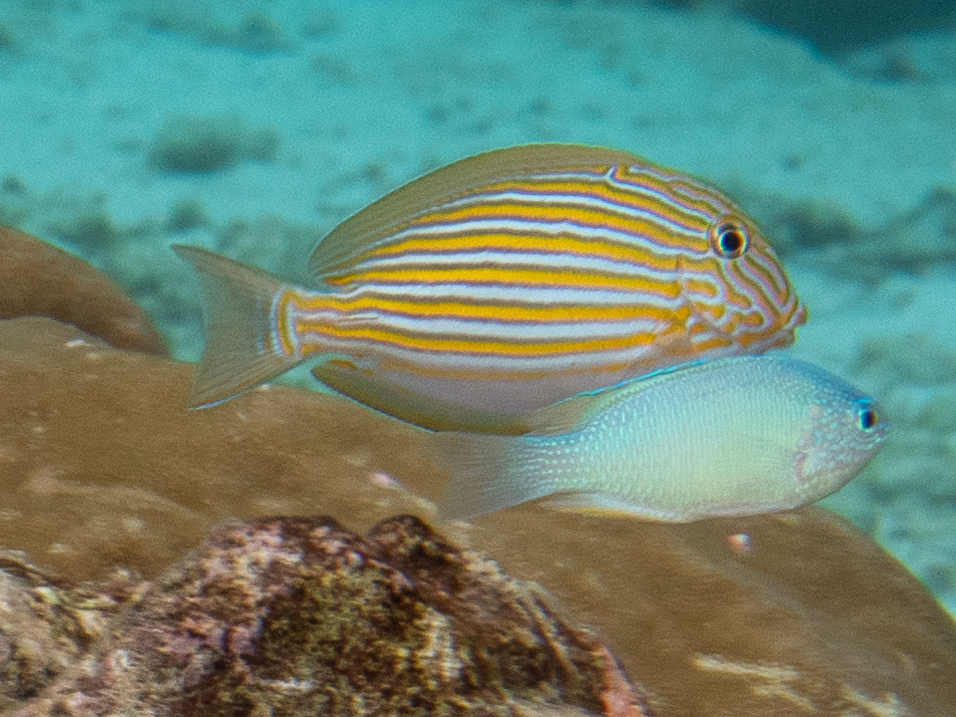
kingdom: Animalia
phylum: Chordata
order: Perciformes
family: Acanthuridae
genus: Acanthurus
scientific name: Acanthurus lineatus
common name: Striped surgeonfish
